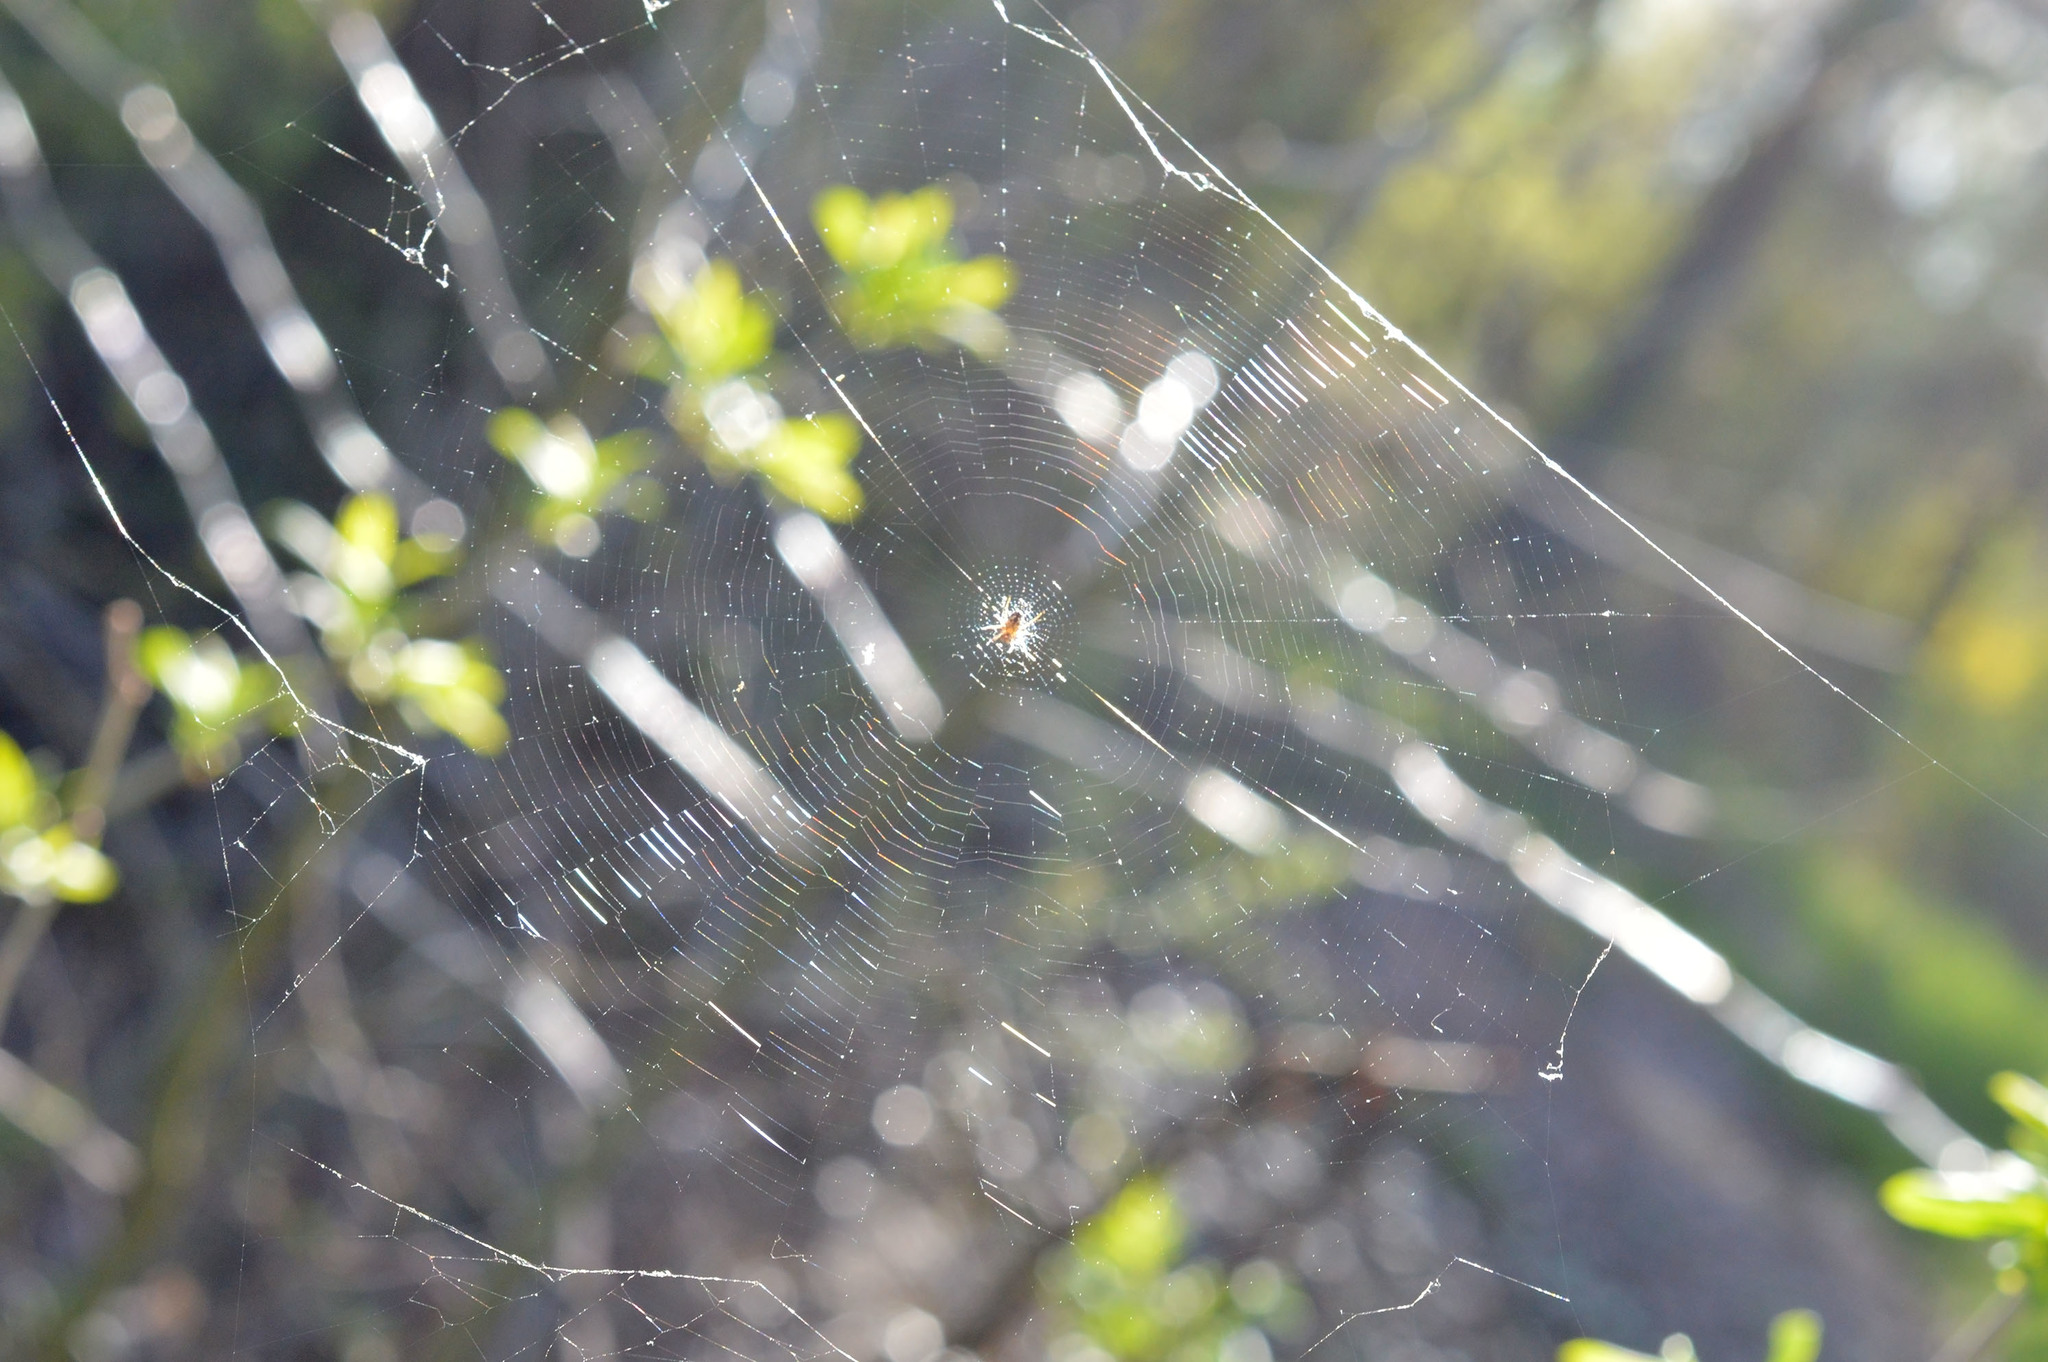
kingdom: Animalia
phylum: Arthropoda
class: Arachnida
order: Araneae
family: Araneidae
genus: Zilla
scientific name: Zilla diodia
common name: Zilla diodia
